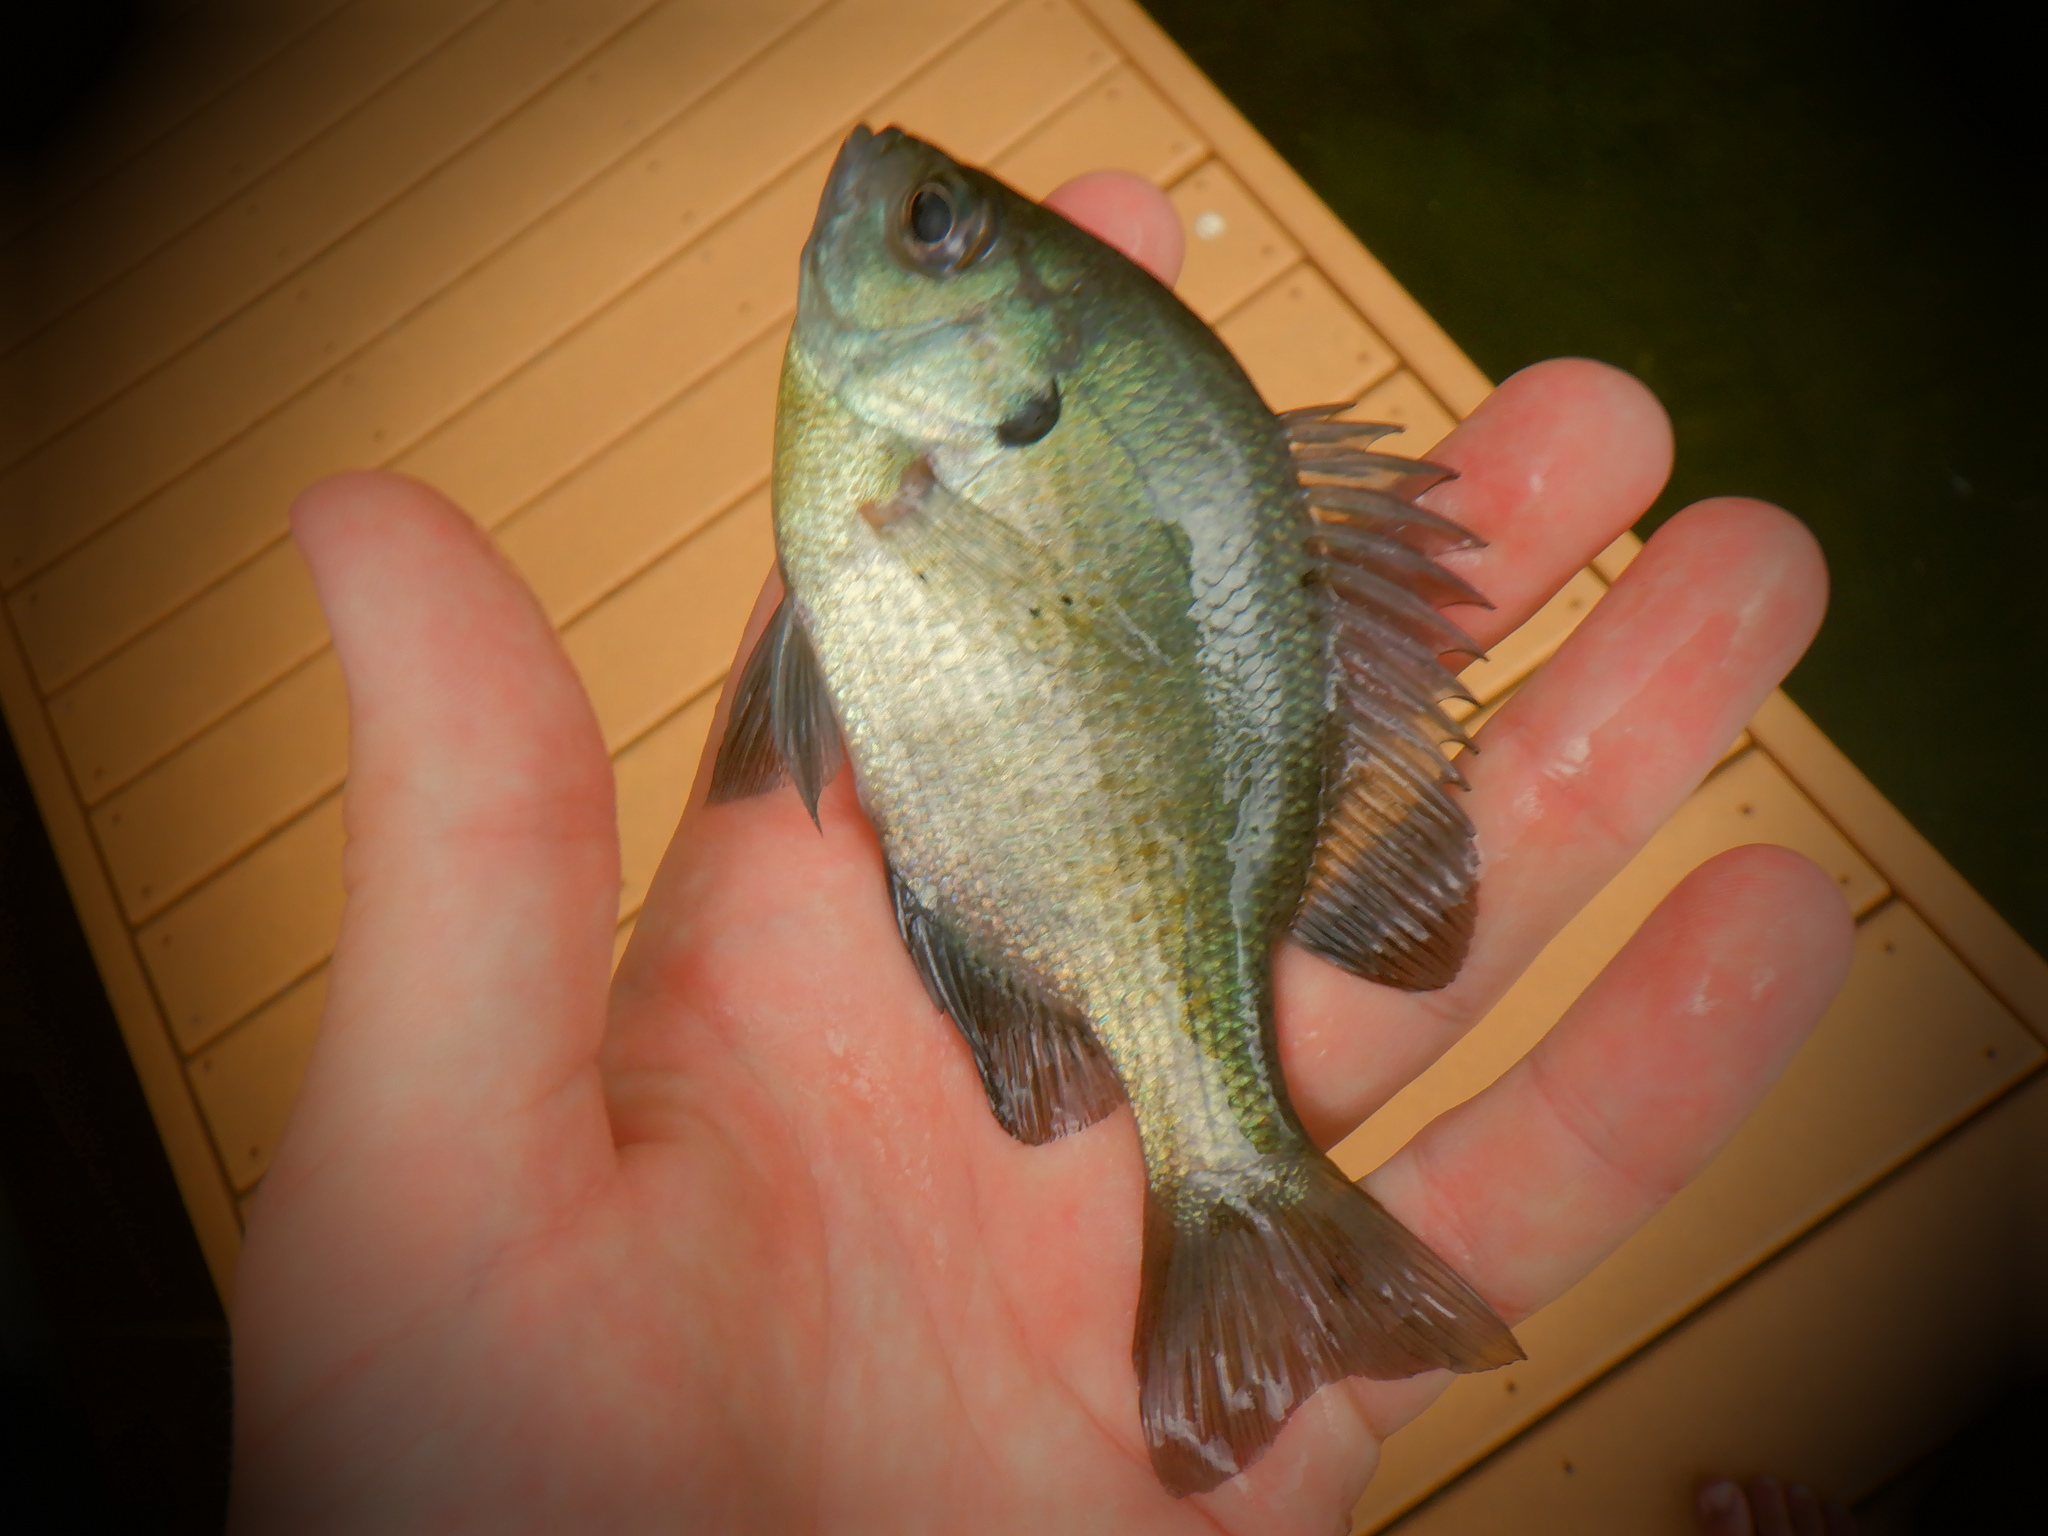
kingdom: Animalia
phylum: Chordata
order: Perciformes
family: Centrarchidae
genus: Lepomis
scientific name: Lepomis macrochirus
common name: Bluegill
